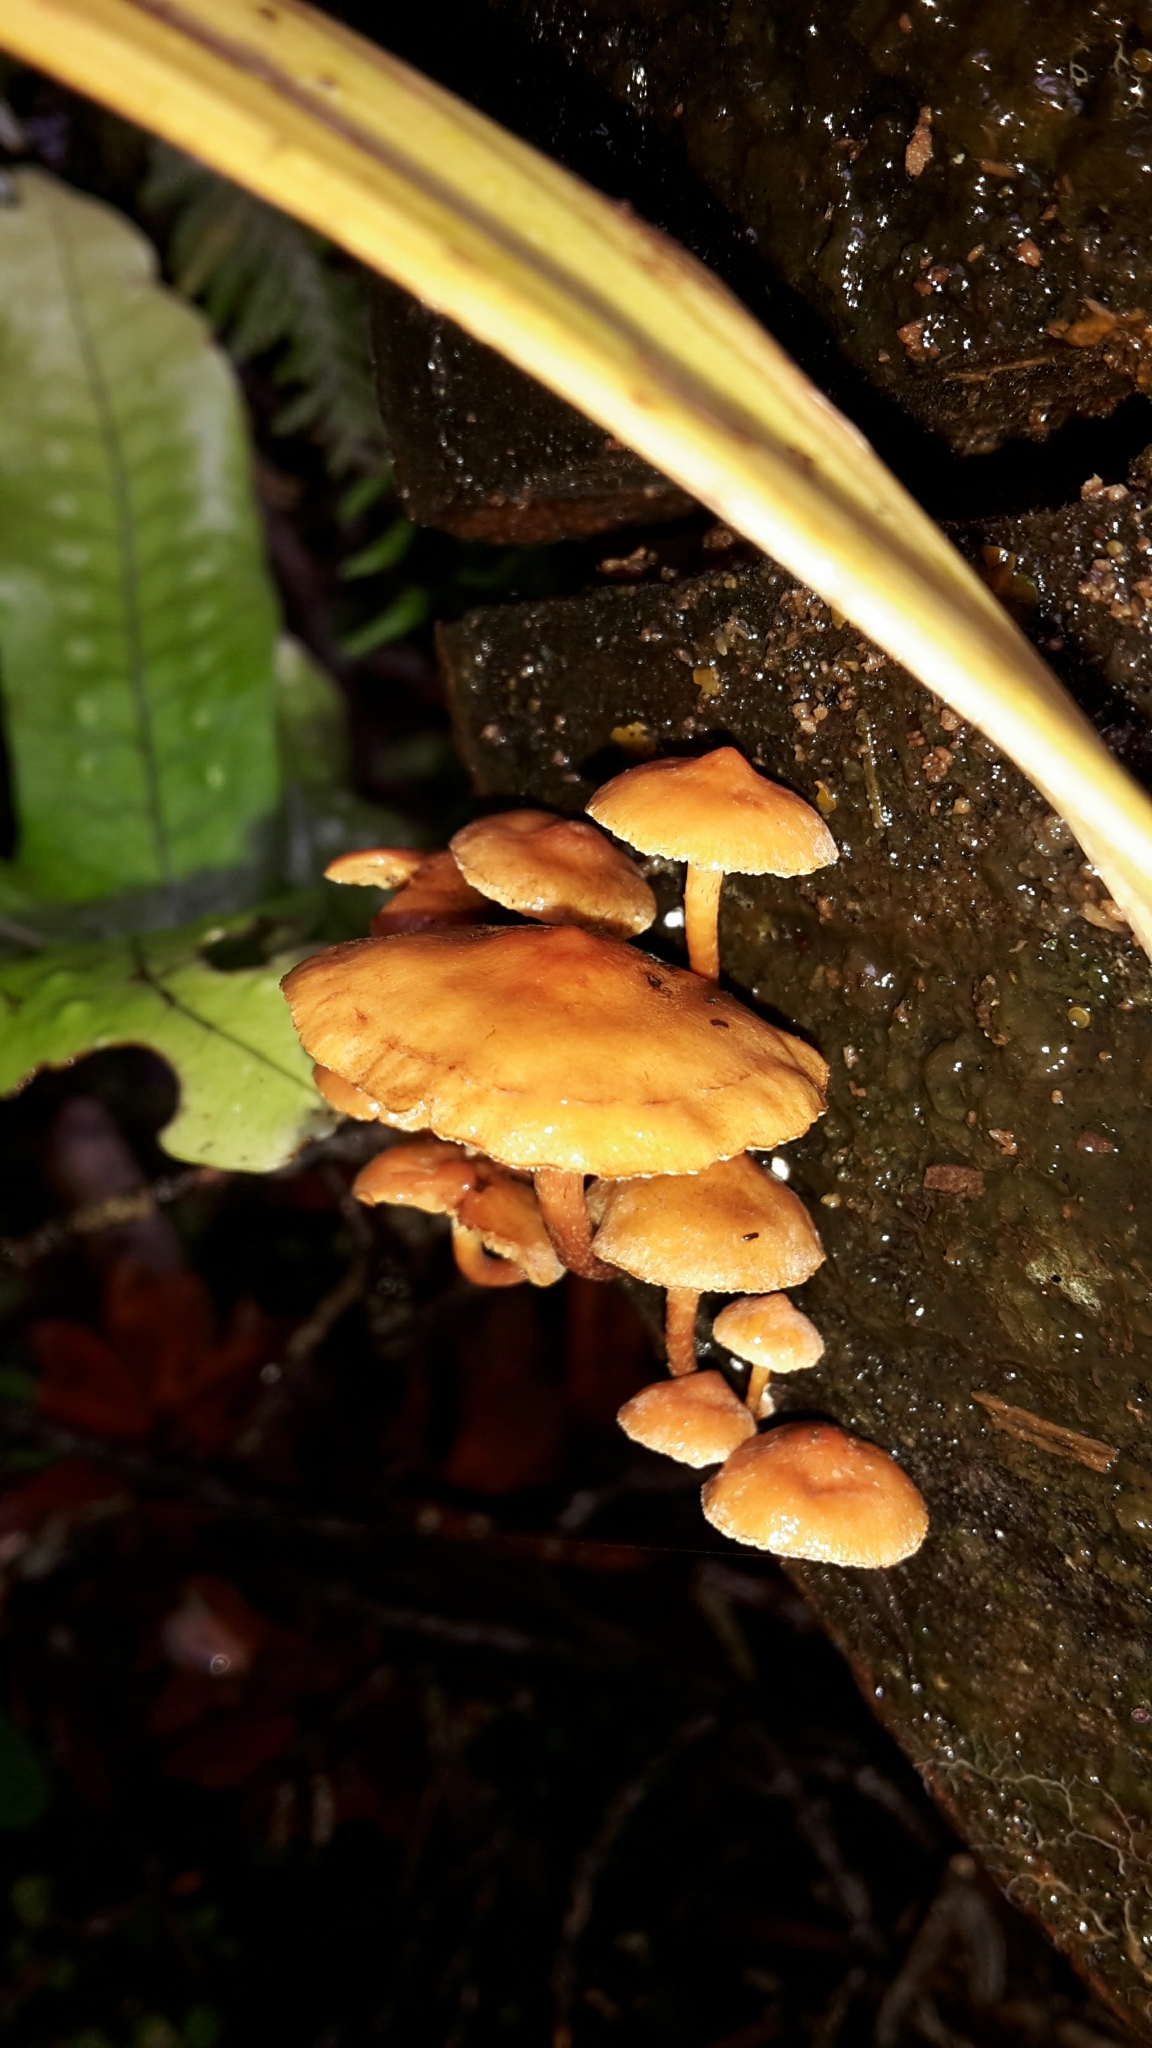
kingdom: Fungi
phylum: Basidiomycota
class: Agaricomycetes
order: Agaricales
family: Strophariaceae
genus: Hypholoma
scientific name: Hypholoma acutum
